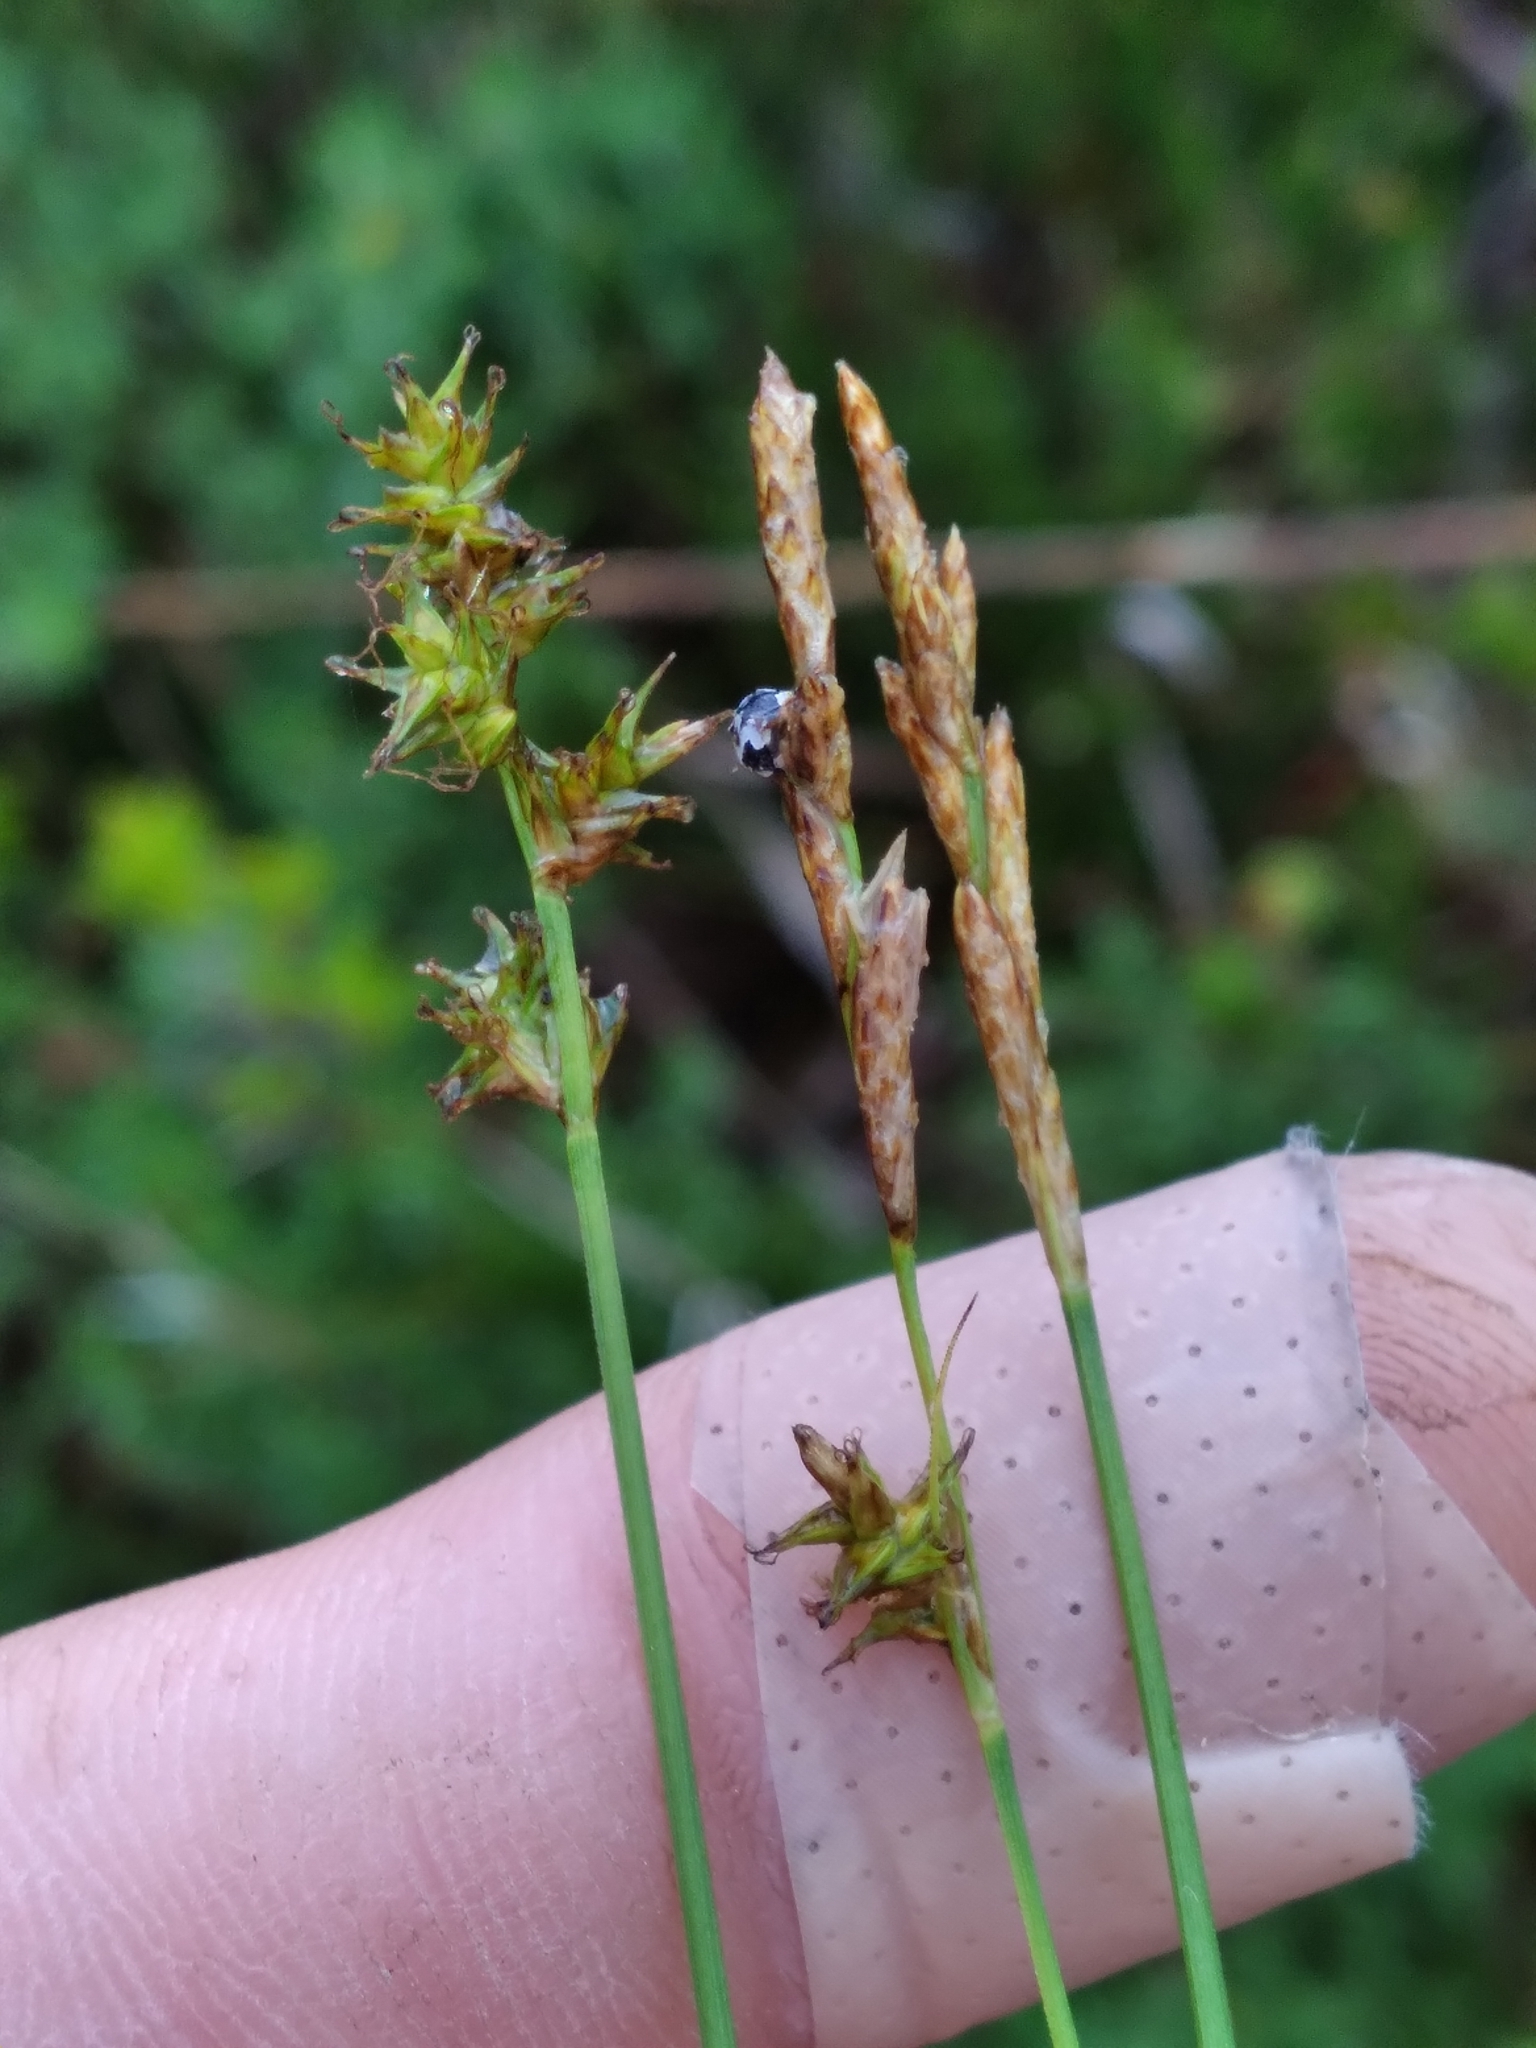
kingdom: Plantae
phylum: Tracheophyta
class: Liliopsida
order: Poales
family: Cyperaceae
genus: Carex
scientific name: Carex sterilis
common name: Dioecious sedge
